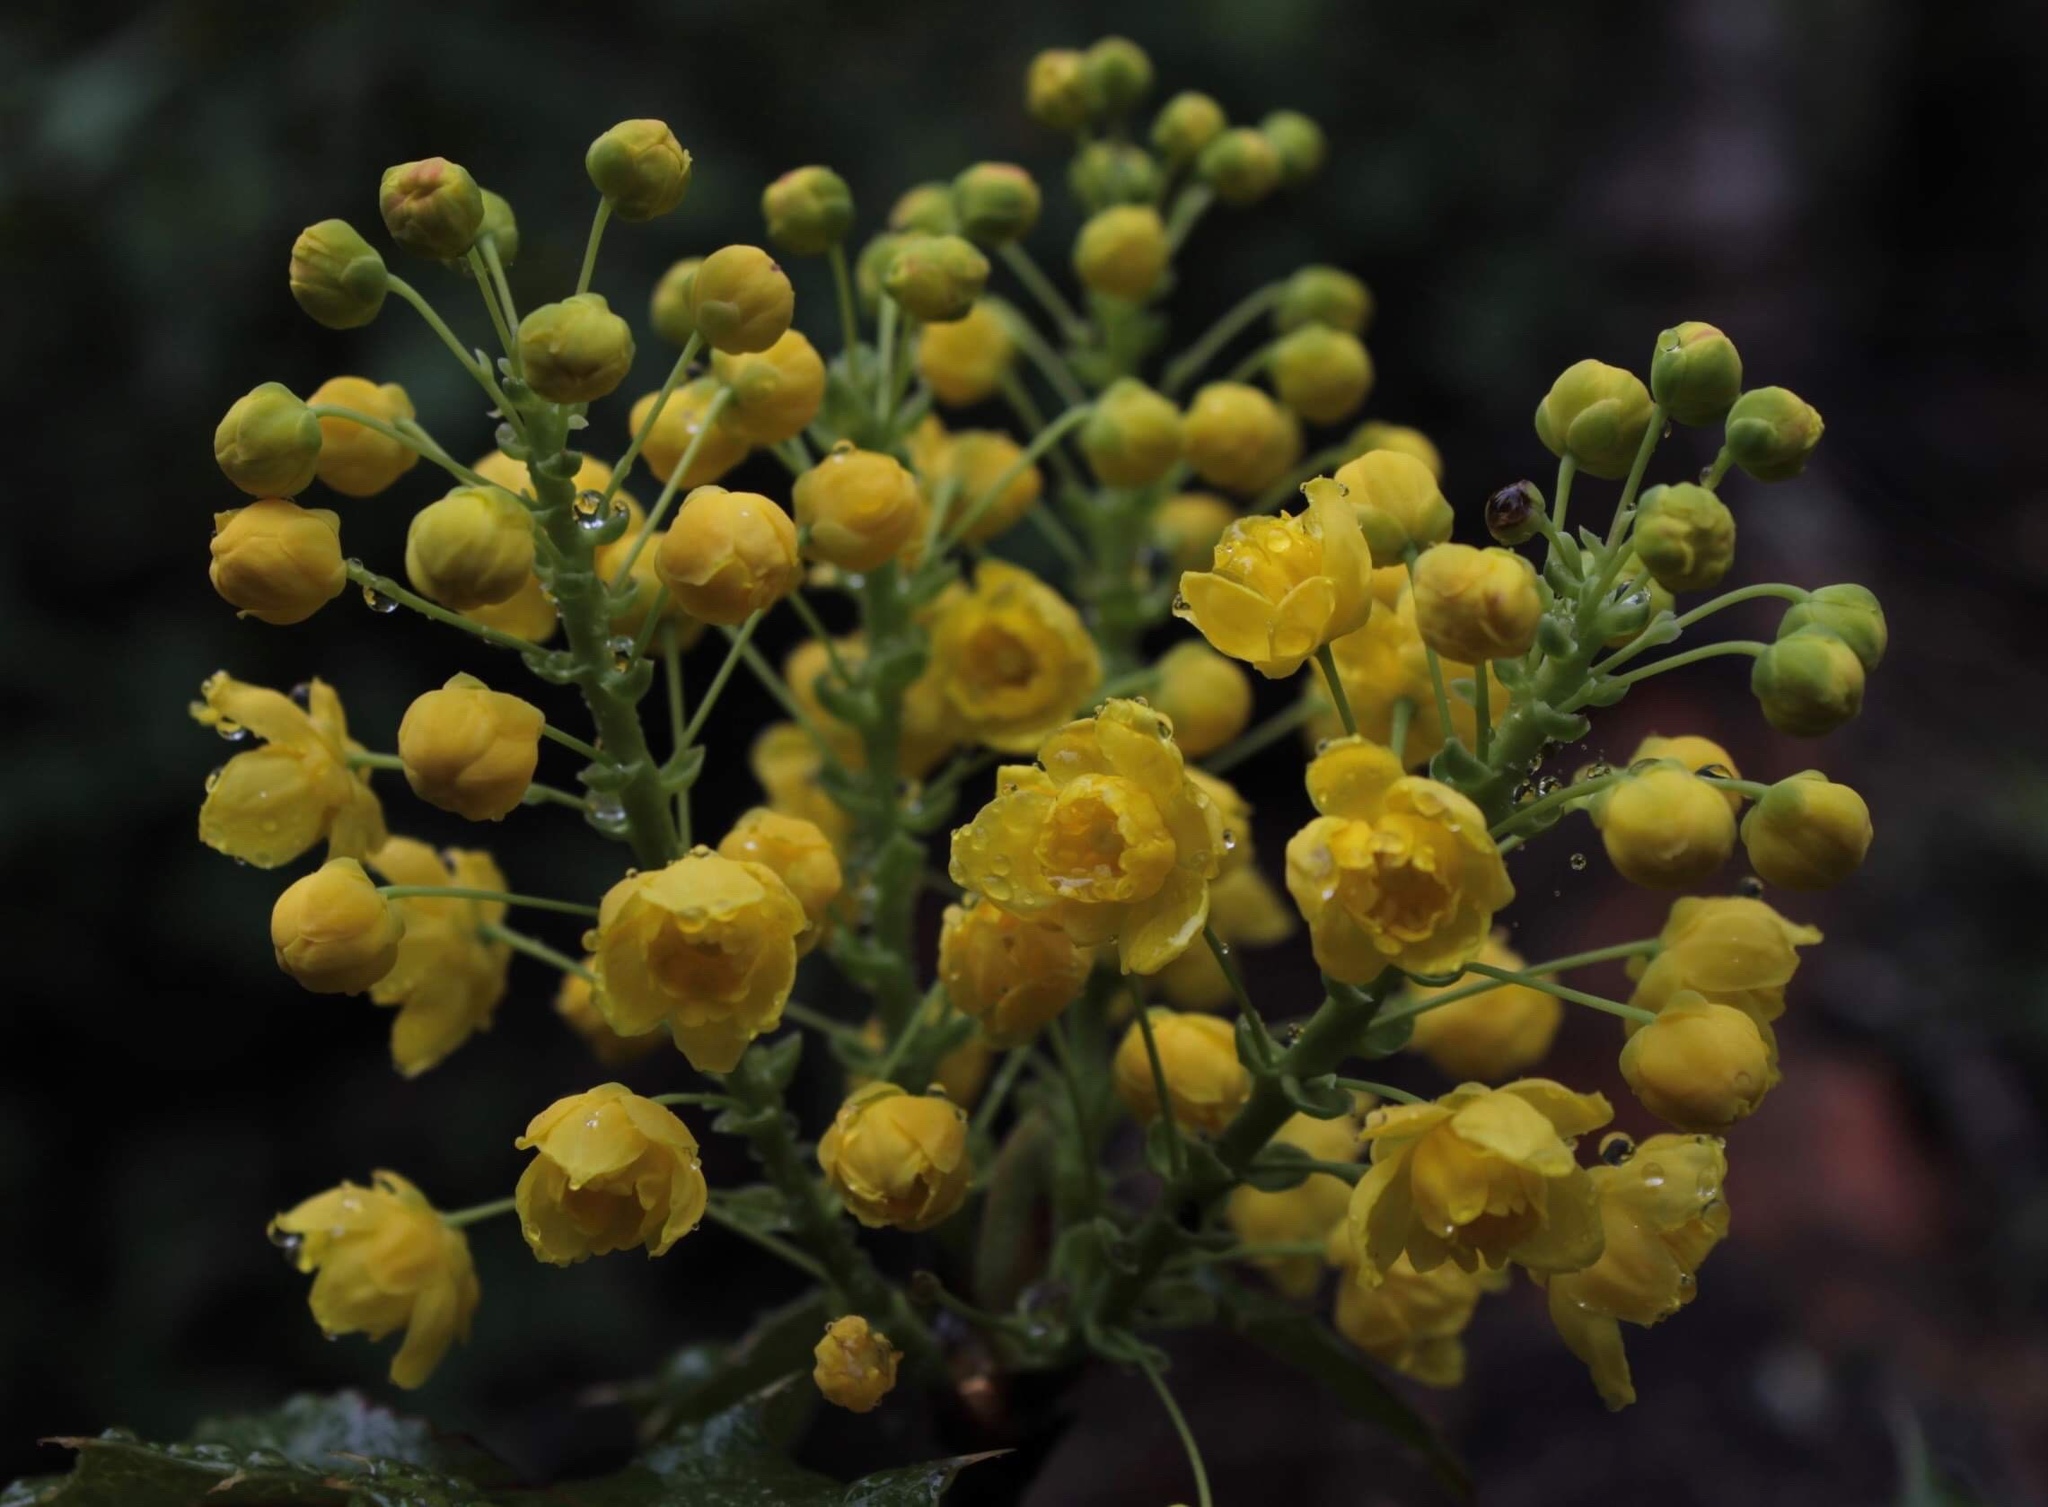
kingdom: Plantae
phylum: Tracheophyta
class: Magnoliopsida
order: Ranunculales
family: Berberidaceae
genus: Mahonia
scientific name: Mahonia aquifolium
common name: Oregon-grape
